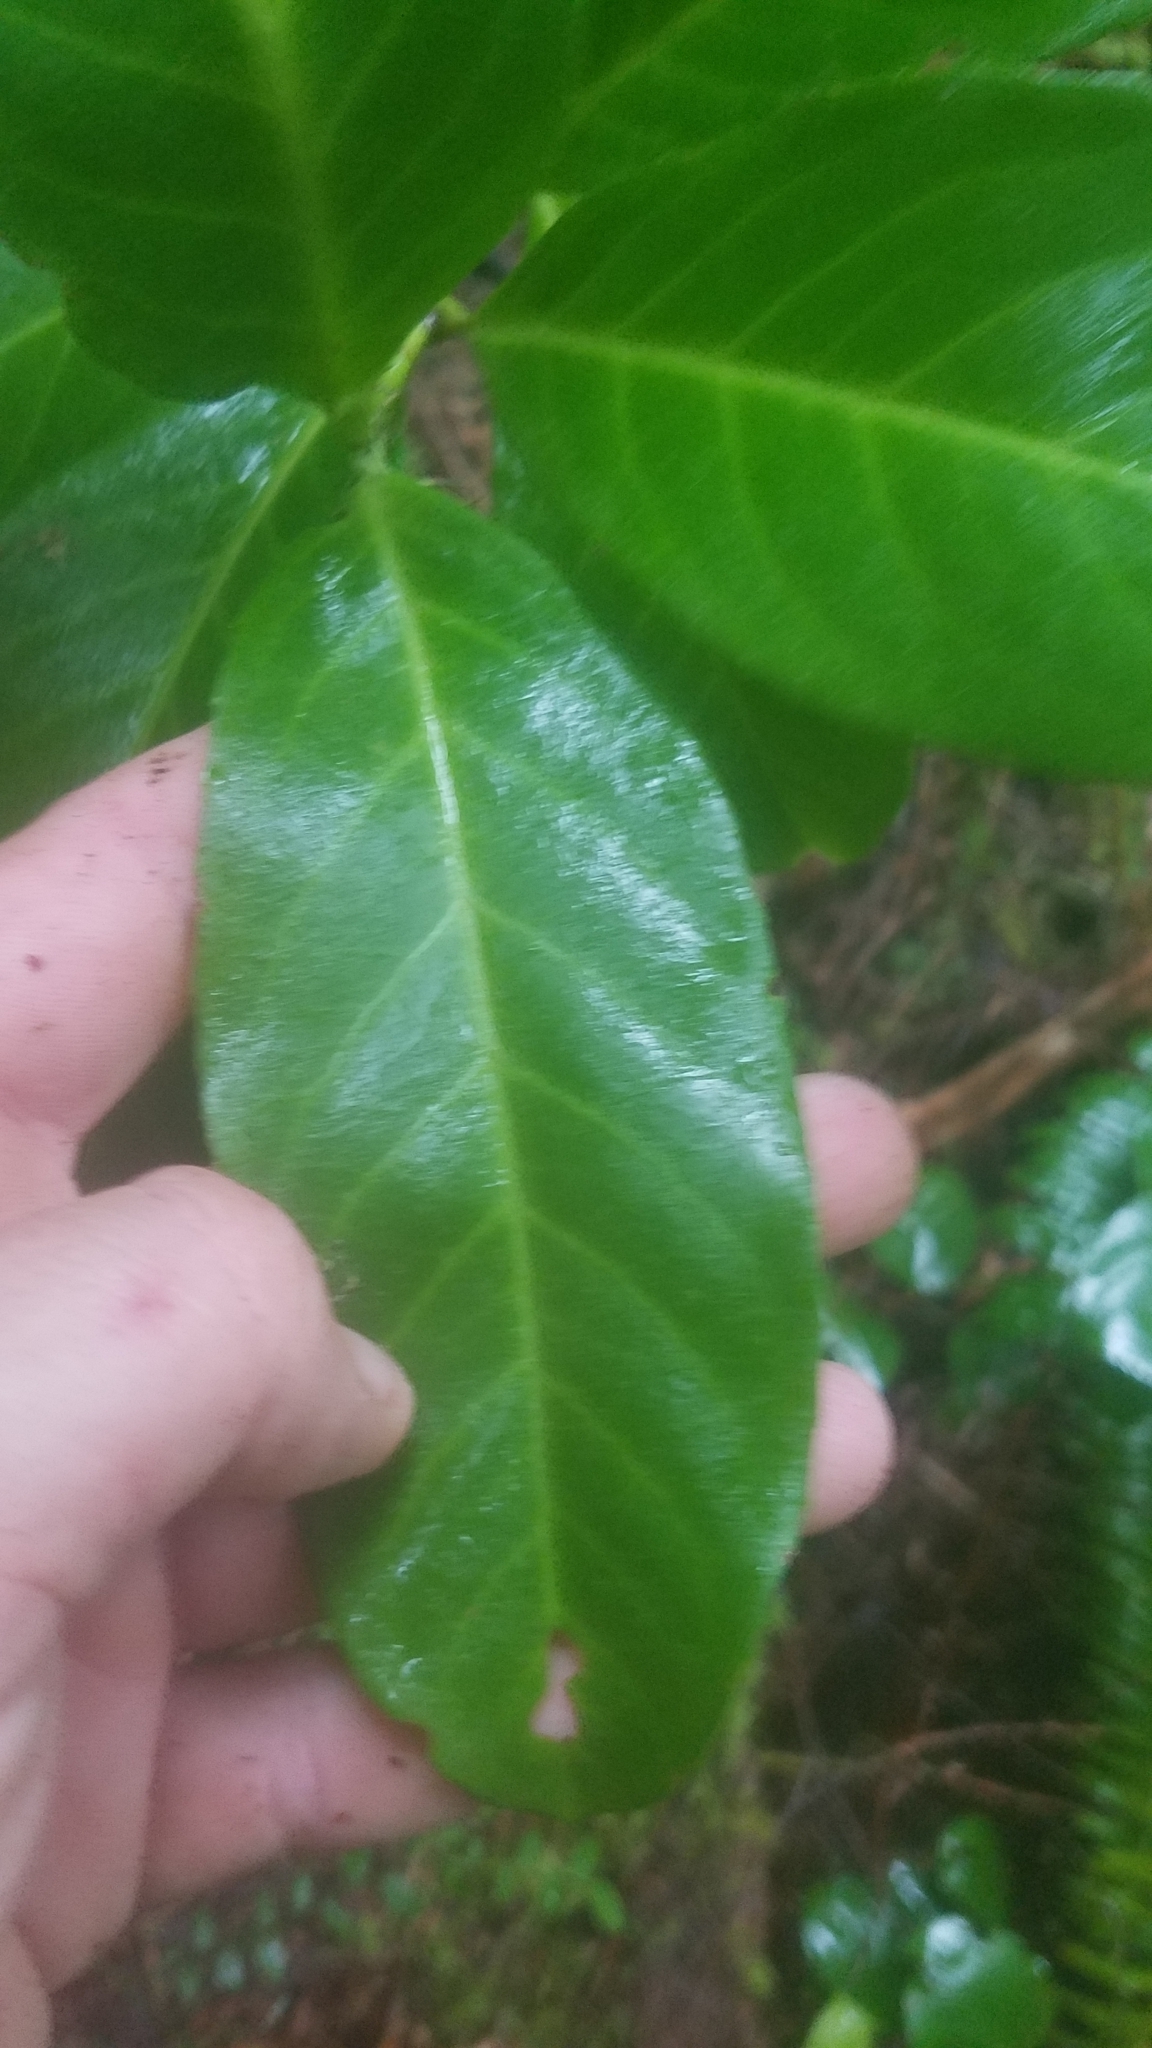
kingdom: Plantae
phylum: Tracheophyta
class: Magnoliopsida
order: Rosales
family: Rosaceae
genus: Prunus
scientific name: Prunus laurocerasus
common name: Cherry laurel
